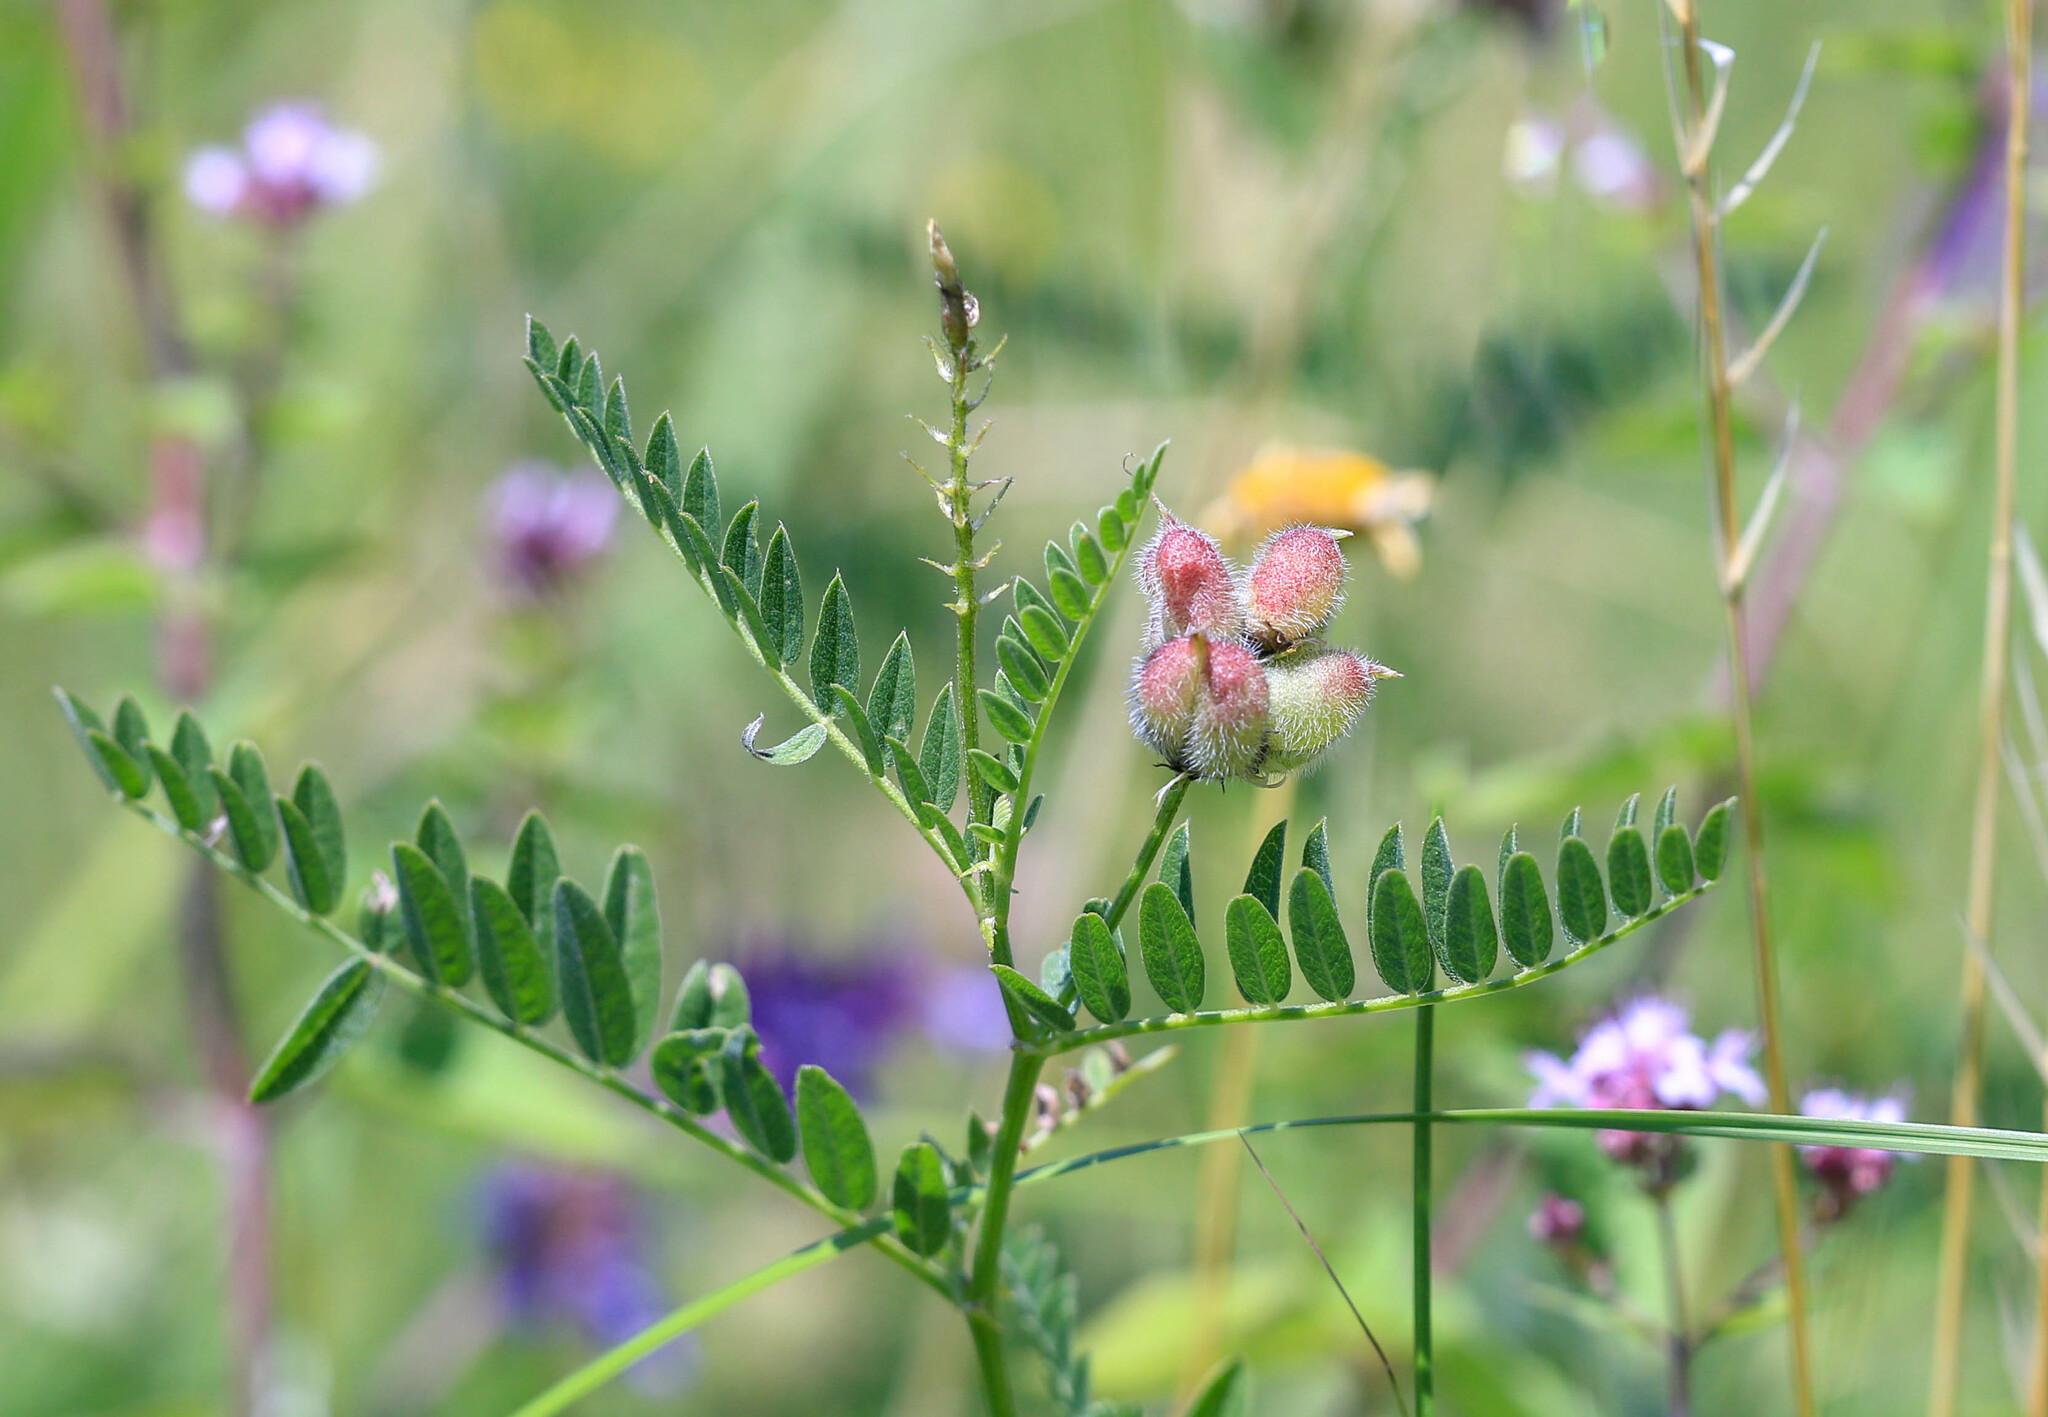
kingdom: Plantae
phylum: Tracheophyta
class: Magnoliopsida
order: Fabales
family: Fabaceae
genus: Astragalus
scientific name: Astragalus cicer
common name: Chick-pea milk-vetch
